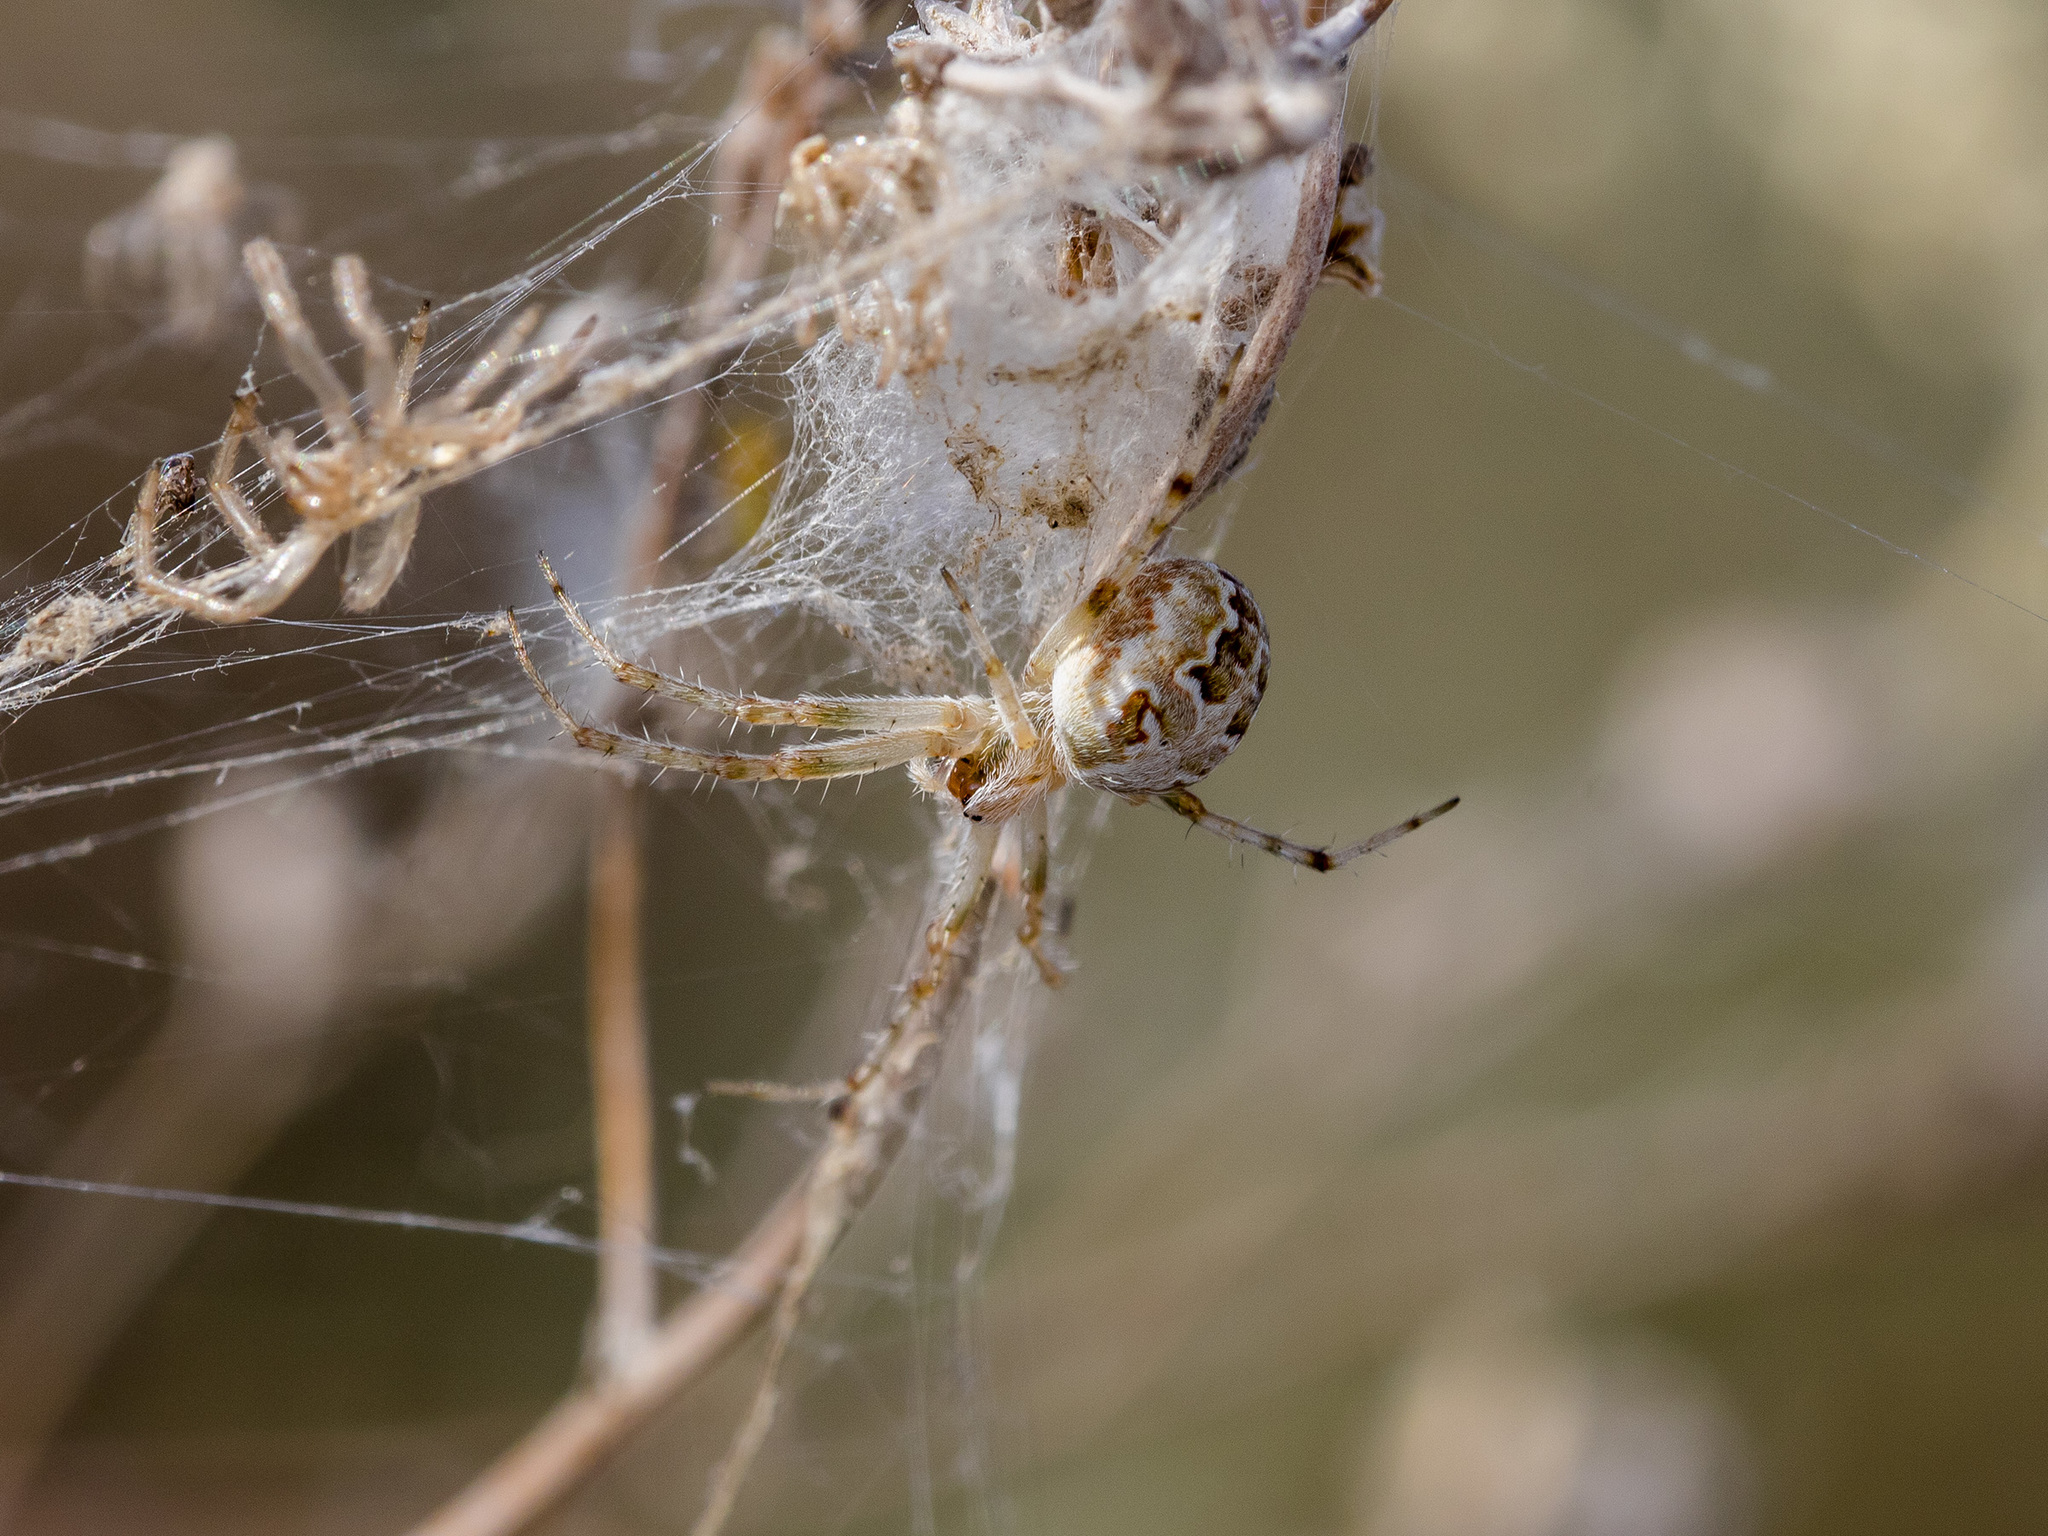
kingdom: Animalia
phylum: Arthropoda
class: Arachnida
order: Araneae
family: Araneidae
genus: Araneus
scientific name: Araneus pallasi
